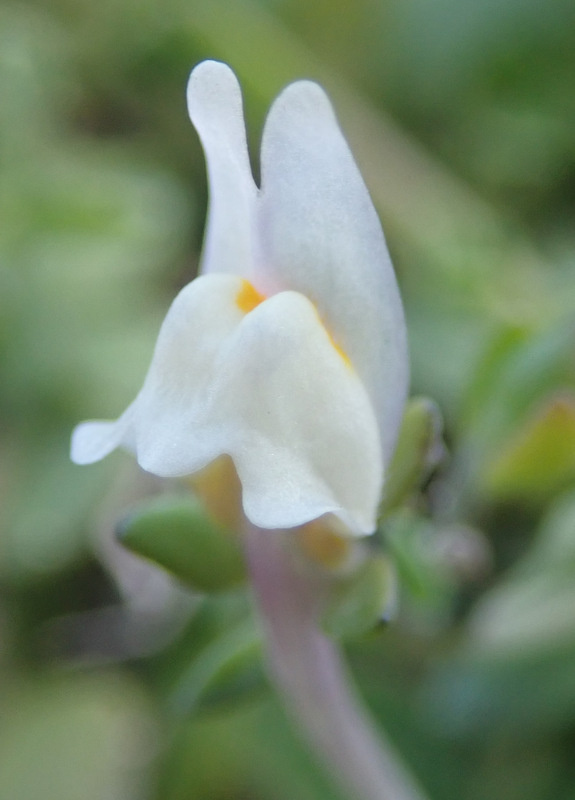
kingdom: Plantae
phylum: Tracheophyta
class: Magnoliopsida
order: Lamiales
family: Plantaginaceae
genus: Linaria
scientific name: Linaria pseudolaxiflora
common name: Maltese toadflax
